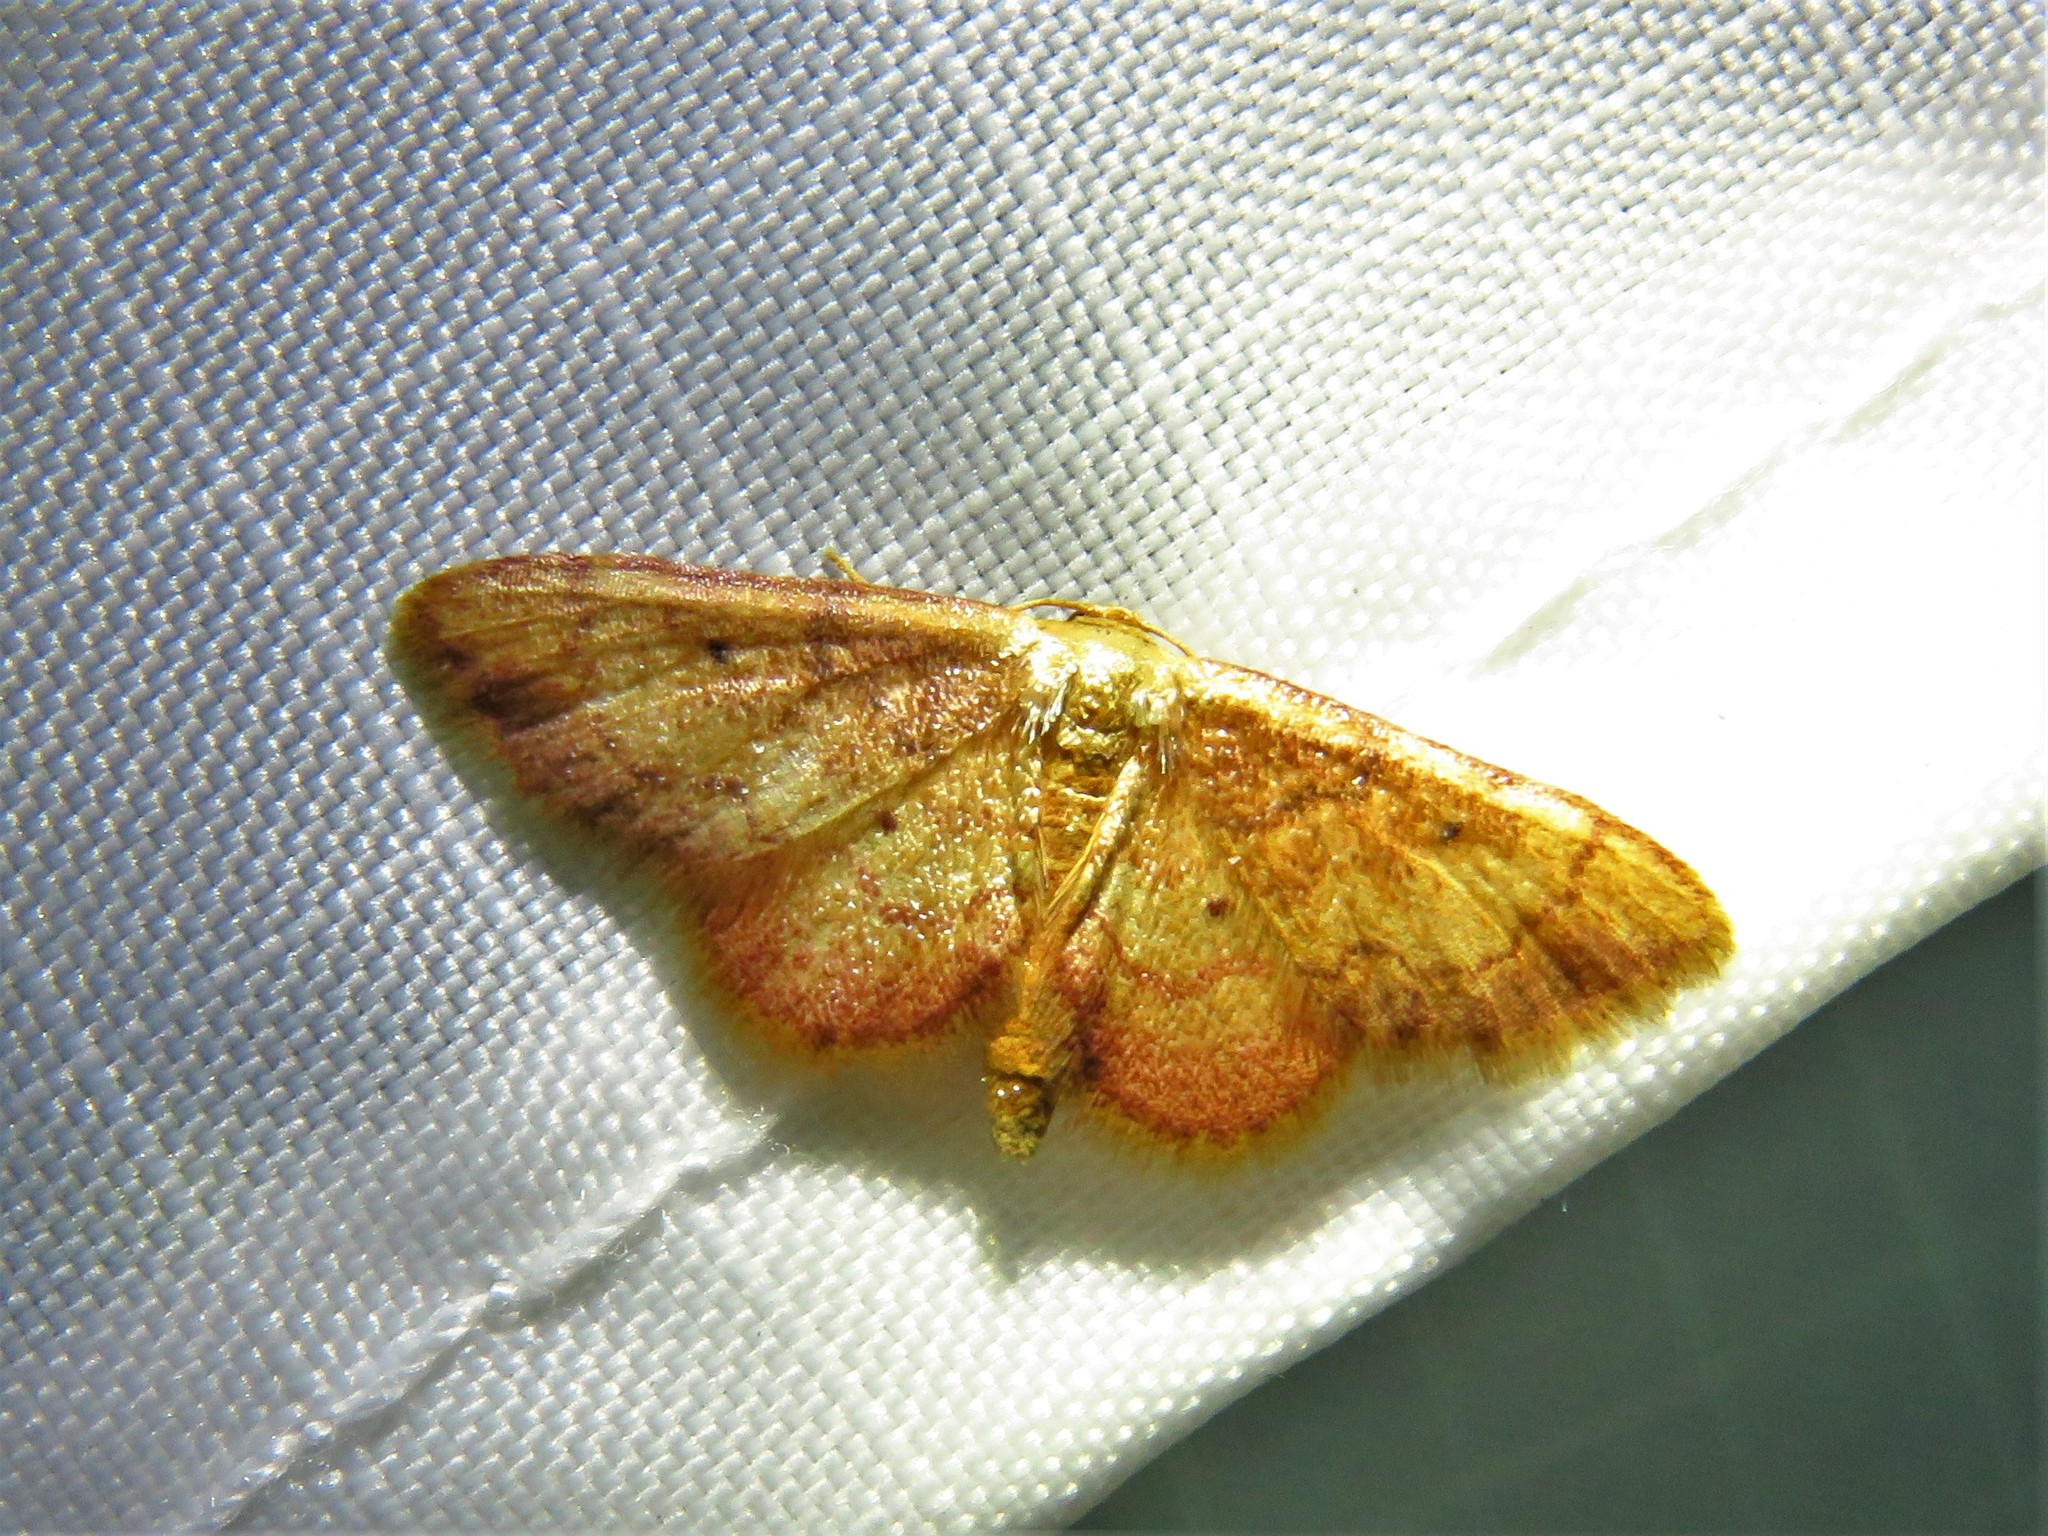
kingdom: Animalia
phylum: Arthropoda
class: Insecta
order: Lepidoptera
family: Geometridae
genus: Idaea
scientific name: Idaea demissaria
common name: Red-bordered wave
